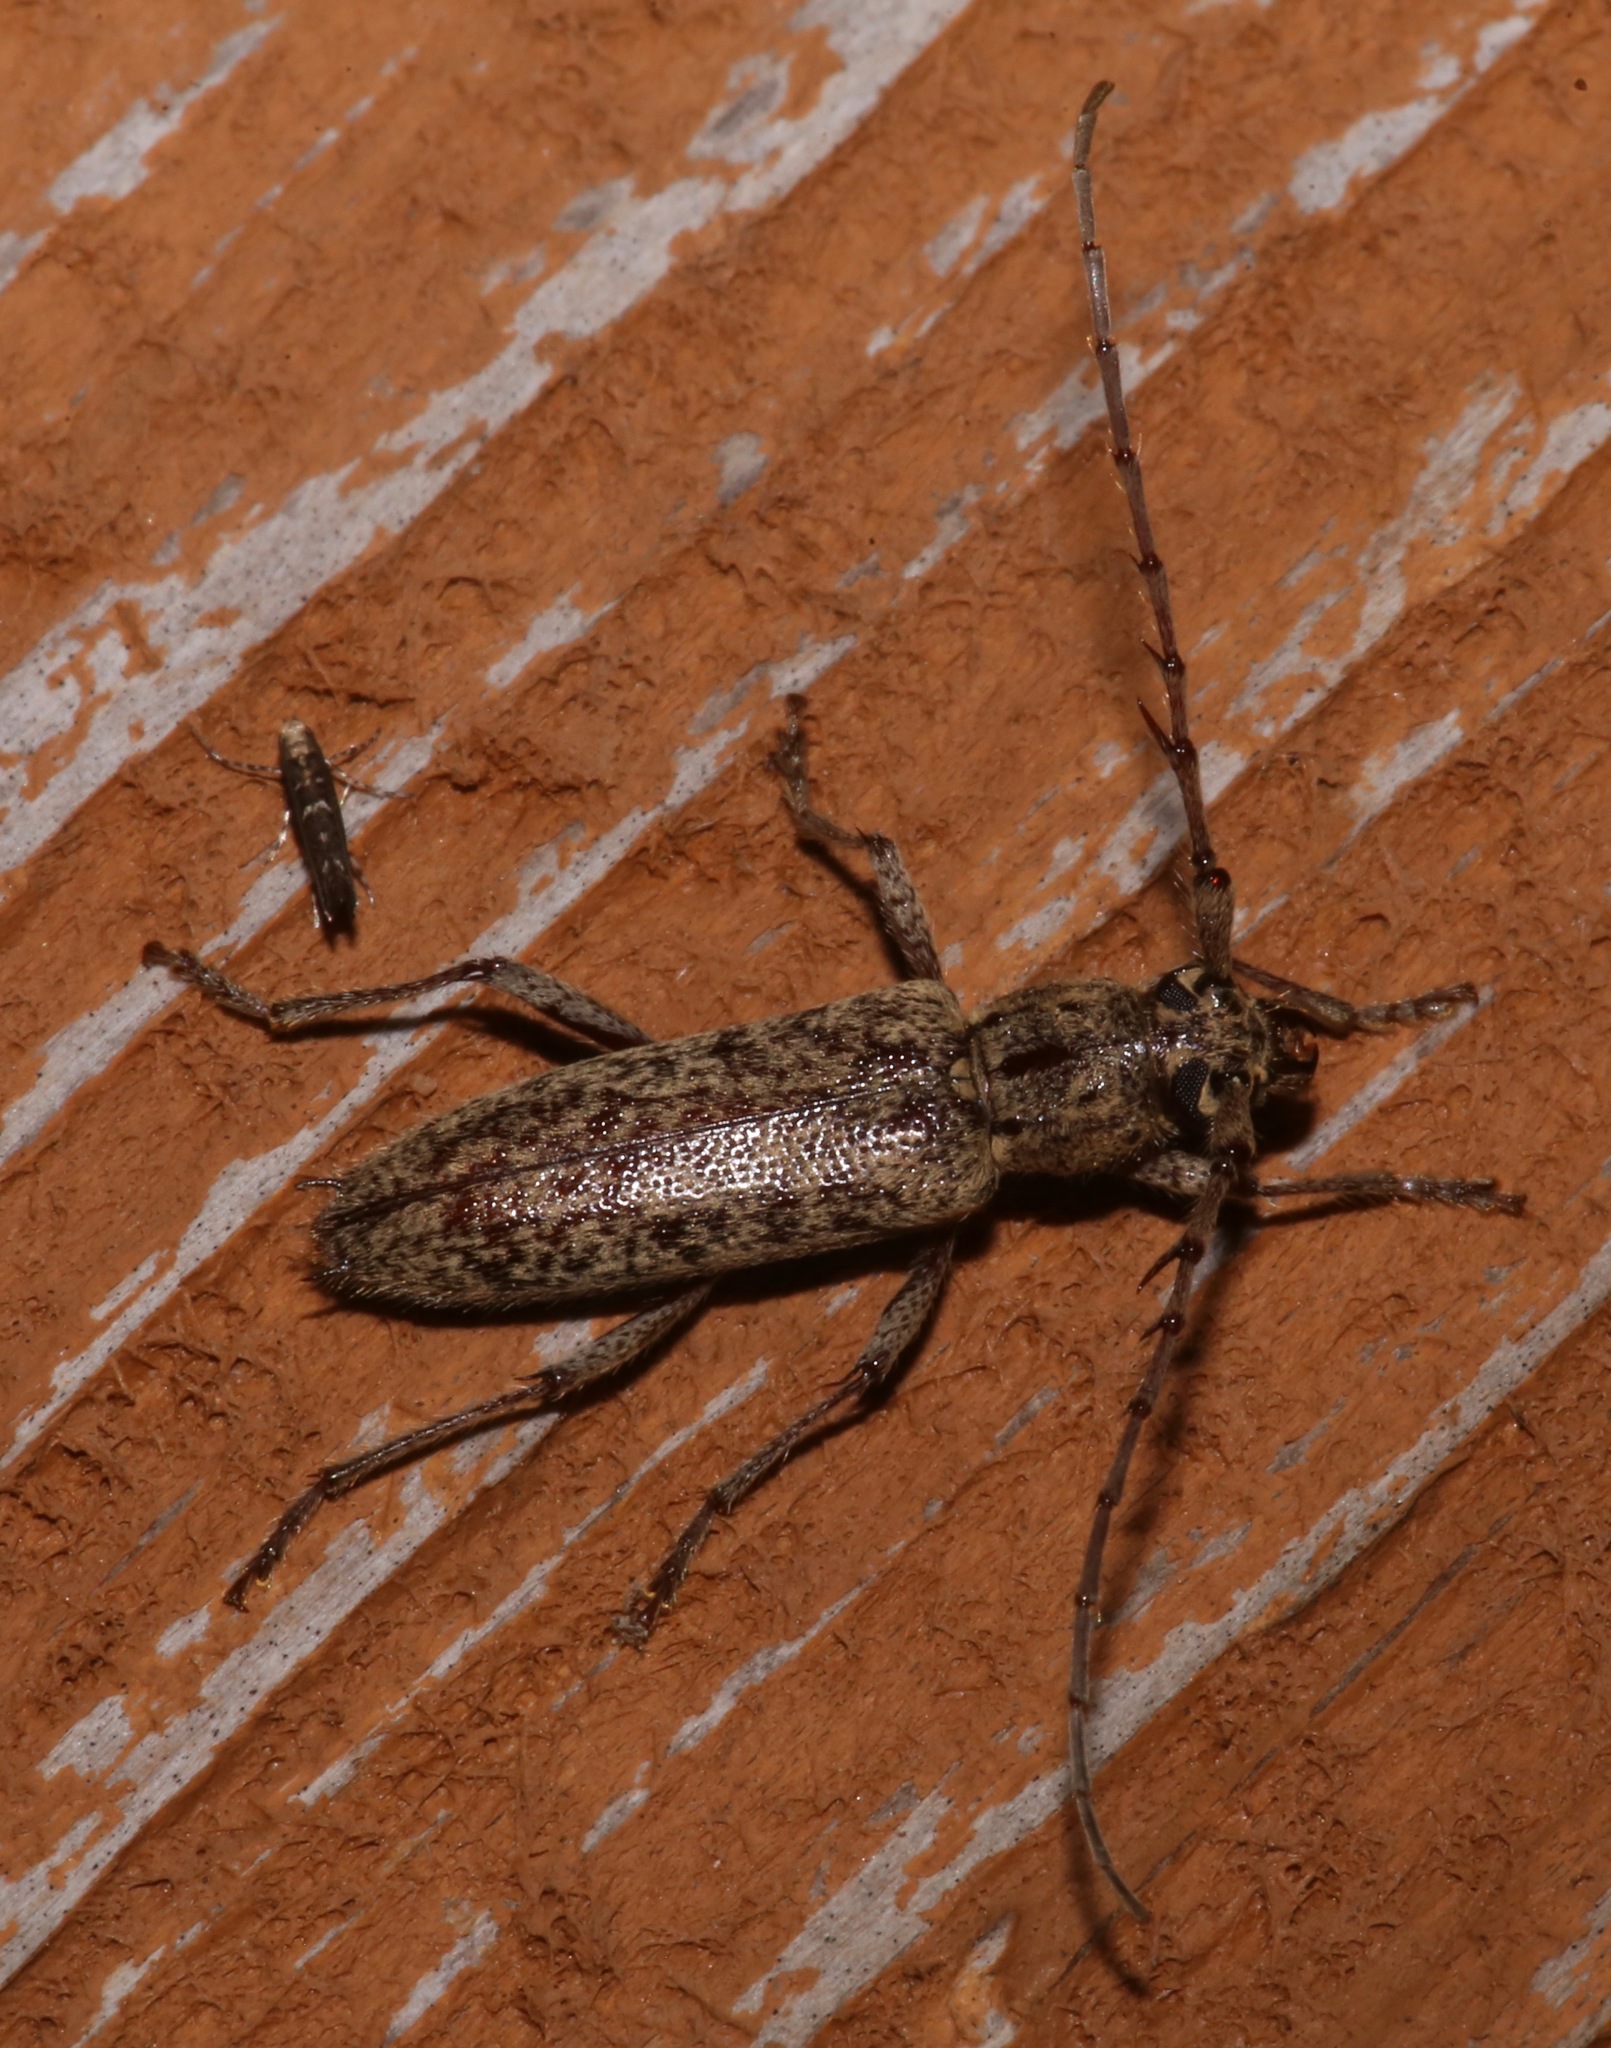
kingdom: Animalia
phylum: Arthropoda
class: Insecta
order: Coleoptera
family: Cerambycidae
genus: Elaphidion
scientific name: Elaphidion mucronatum
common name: Spined oak borer
